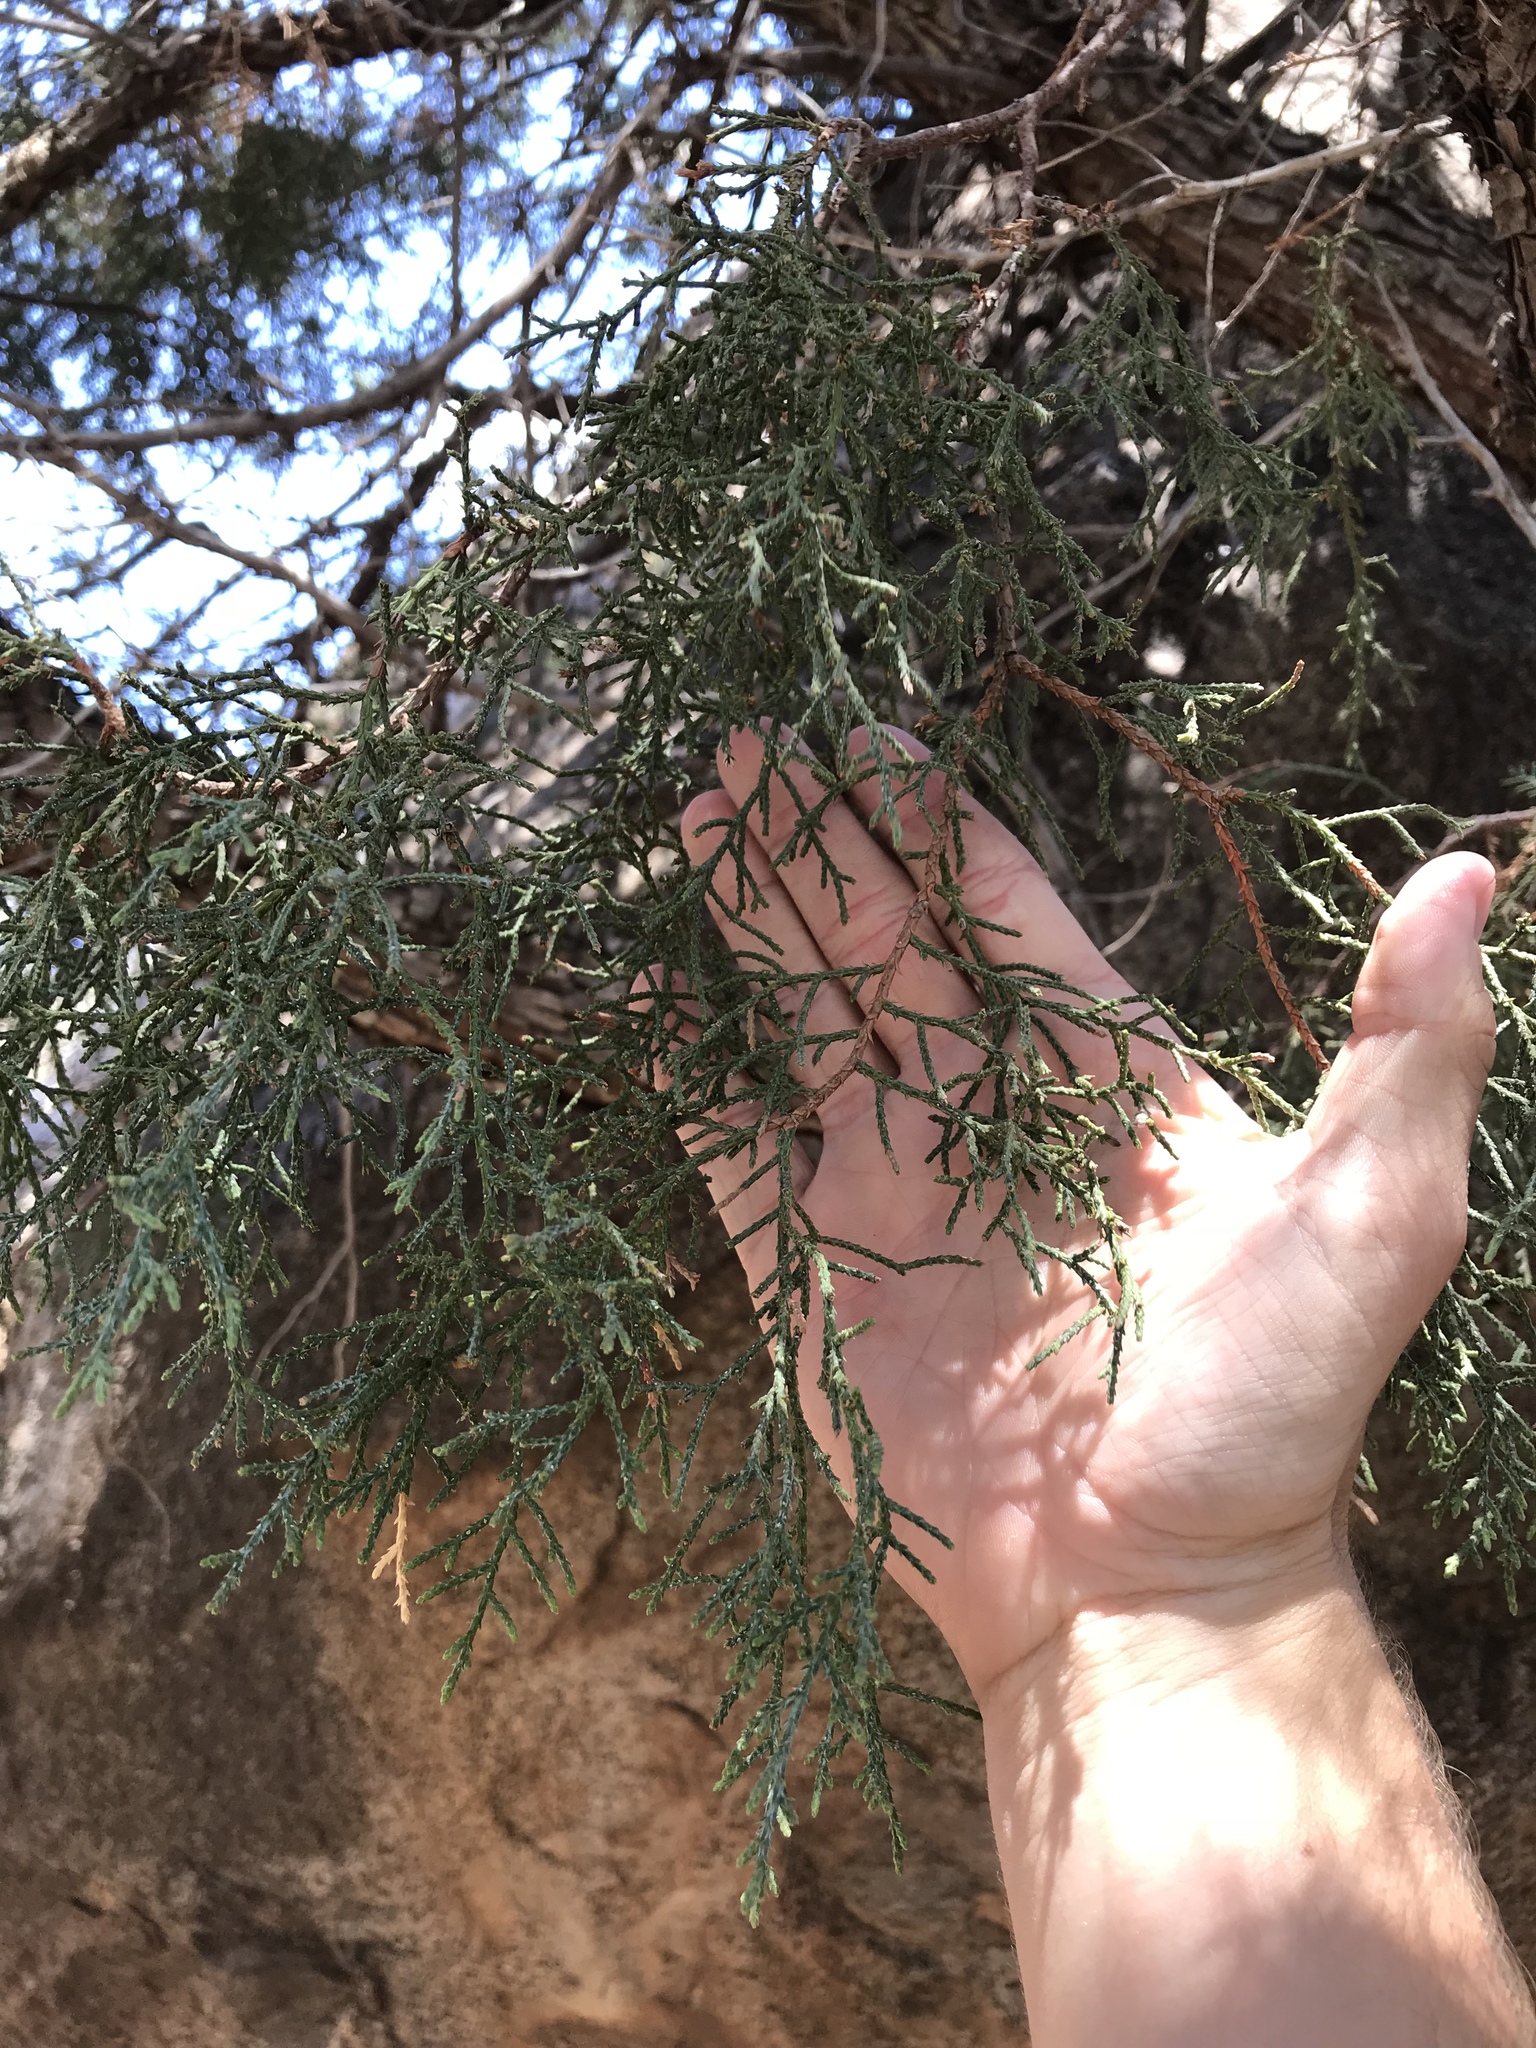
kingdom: Plantae
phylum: Tracheophyta
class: Pinopsida
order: Pinales
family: Cupressaceae
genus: Juniperus
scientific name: Juniperus deppeana
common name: Alligator juniper
